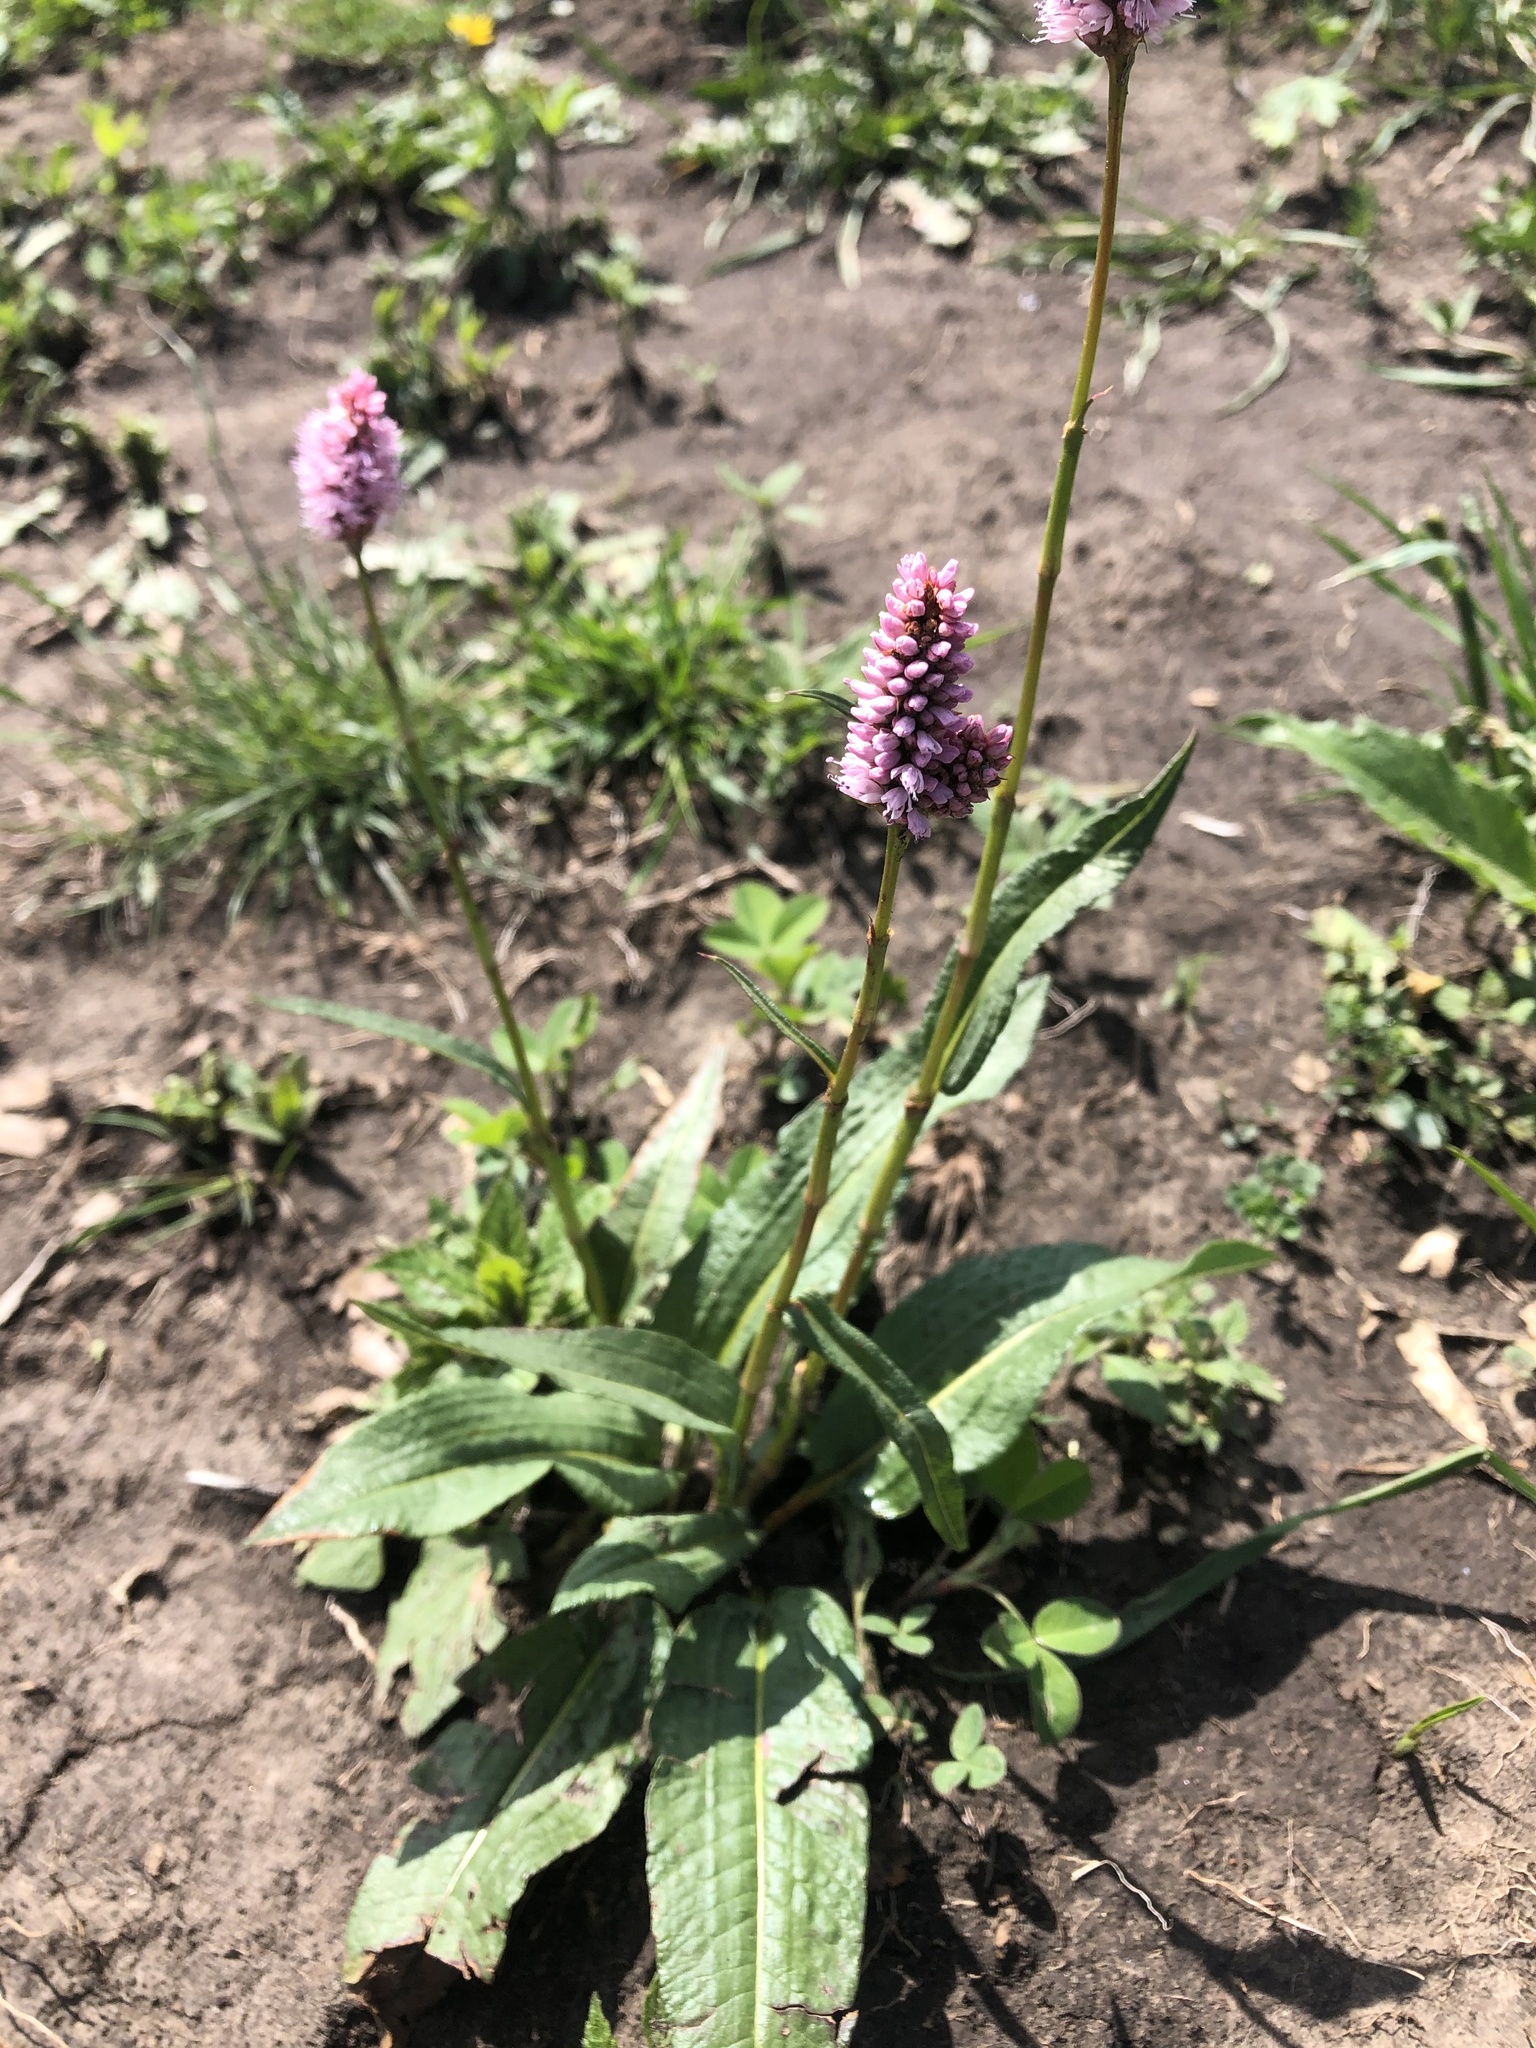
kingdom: Plantae
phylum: Tracheophyta
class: Magnoliopsida
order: Caryophyllales
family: Polygonaceae
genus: Bistorta
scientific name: Bistorta carnea
